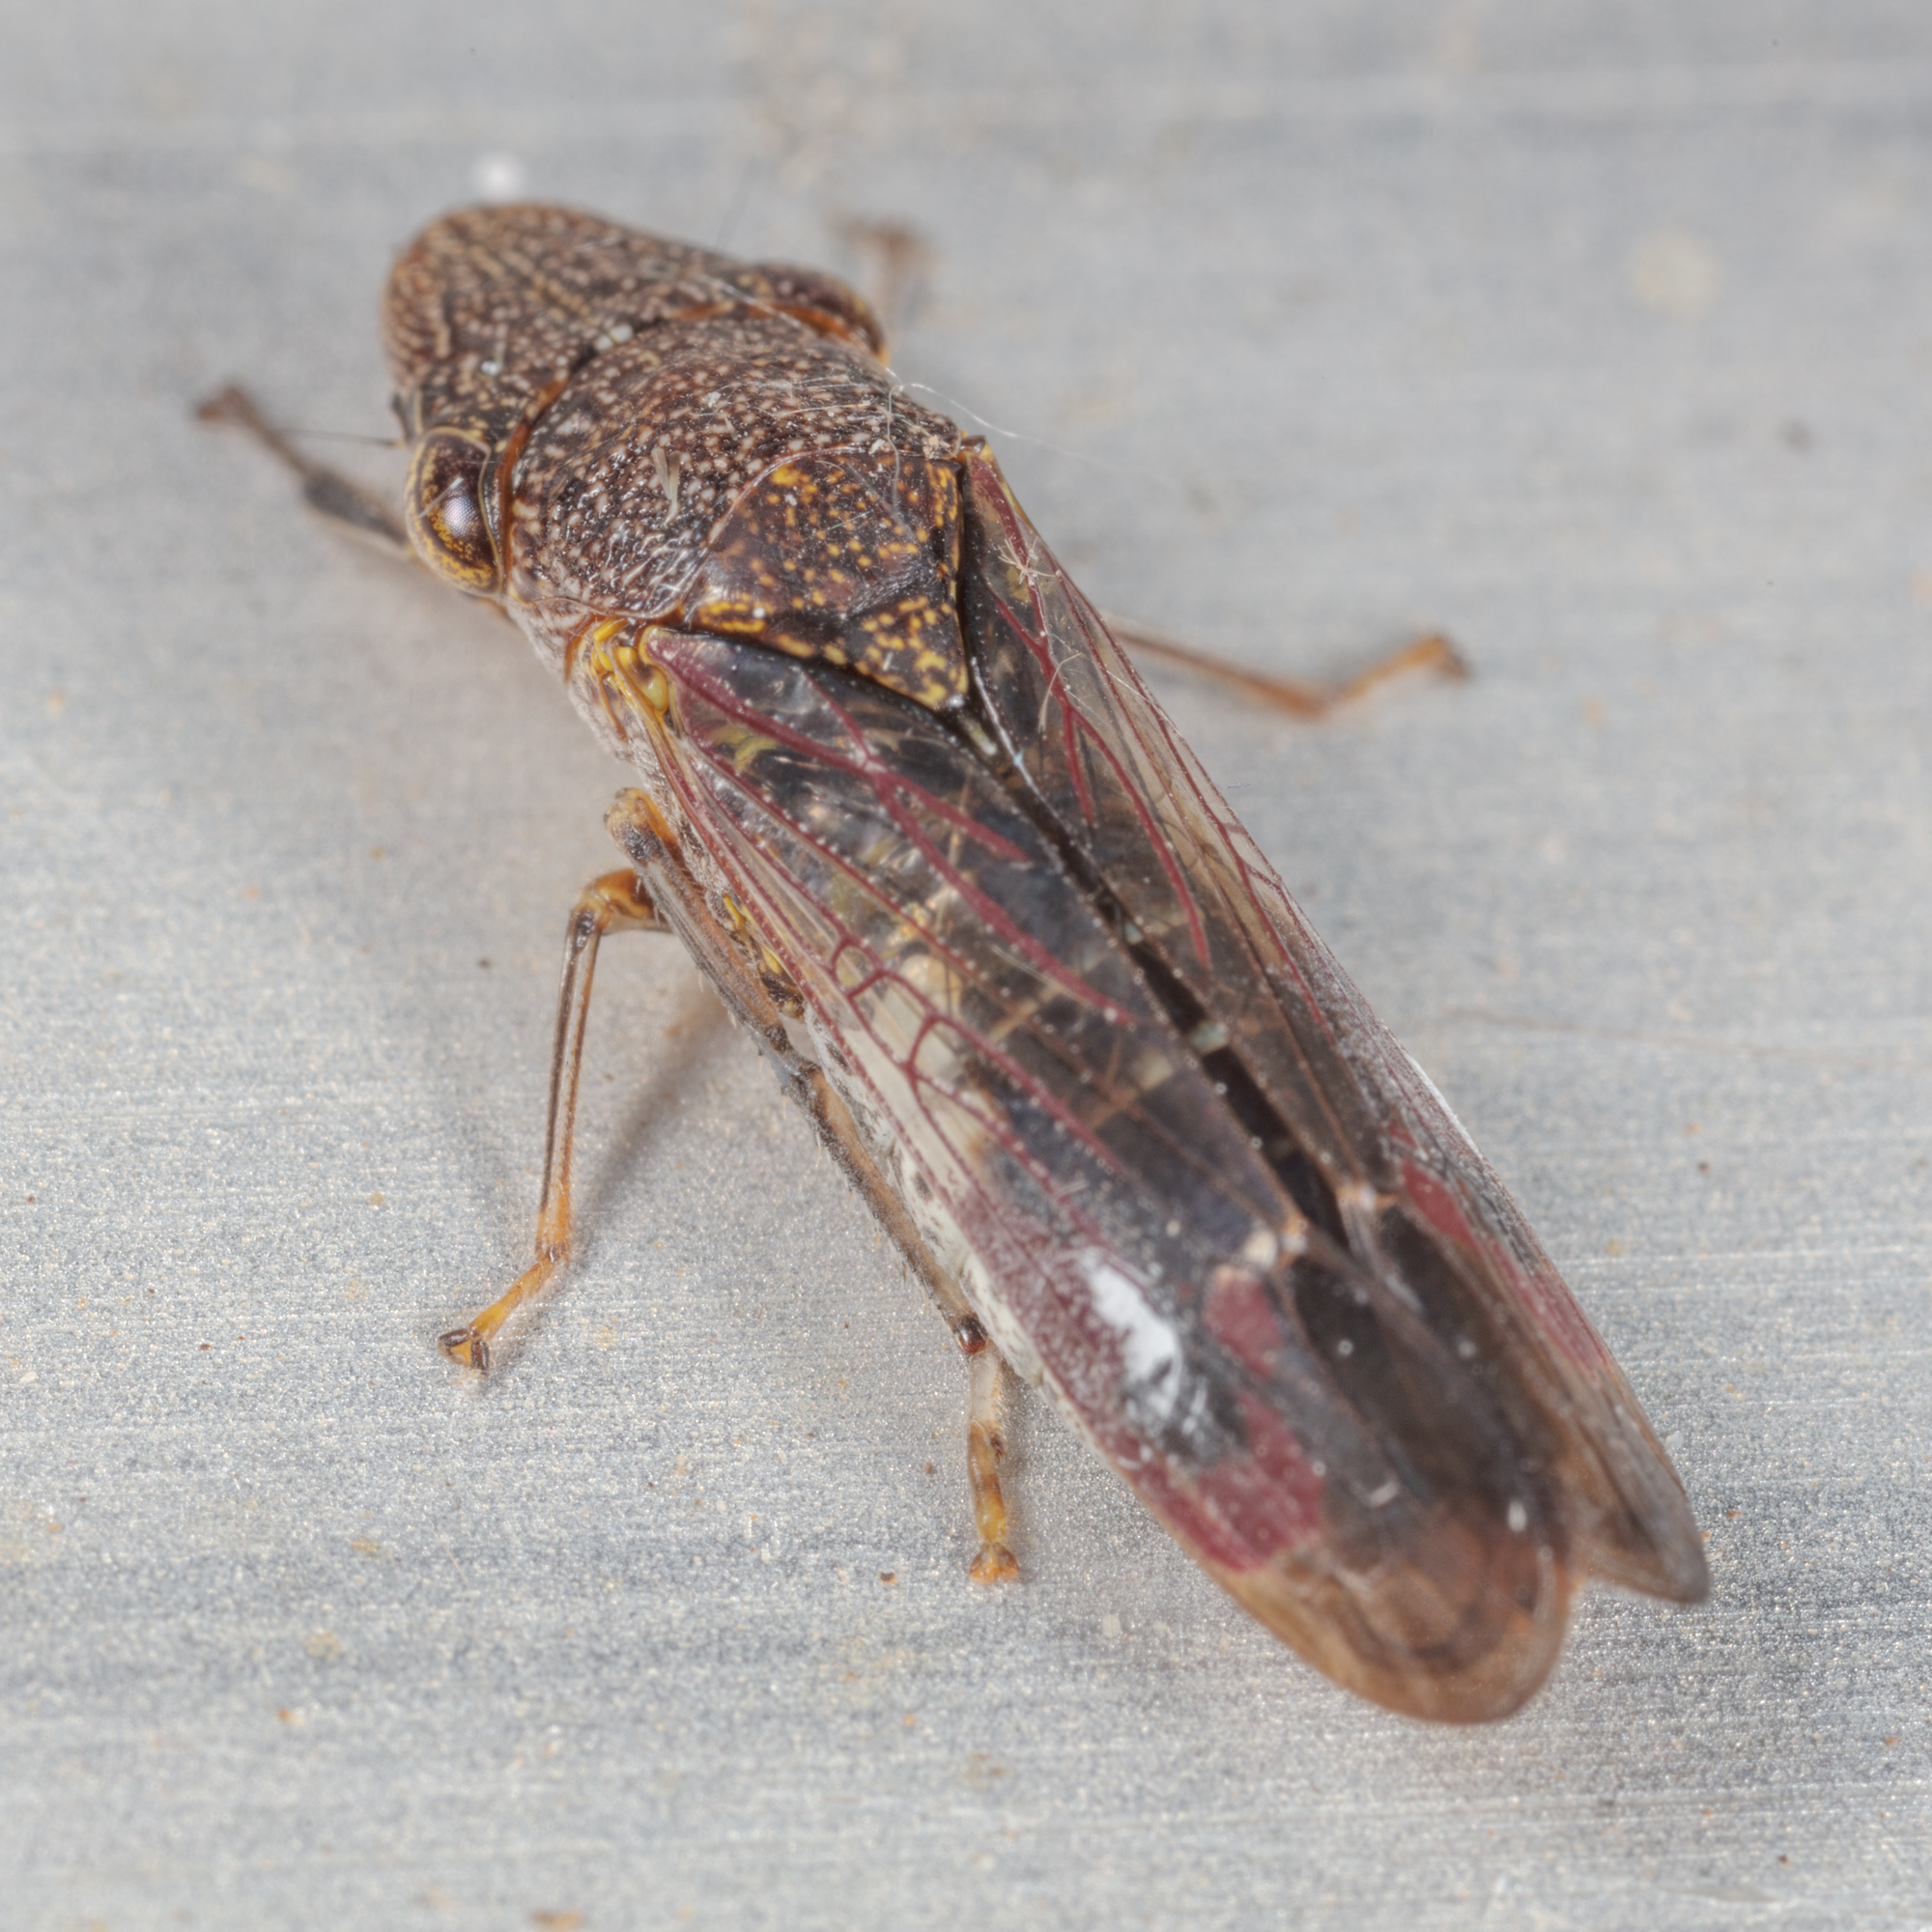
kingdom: Animalia
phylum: Arthropoda
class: Insecta
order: Hemiptera
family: Cicadellidae
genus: Homalodisca
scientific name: Homalodisca vitripennis
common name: Glassy-winged sharpshooter
